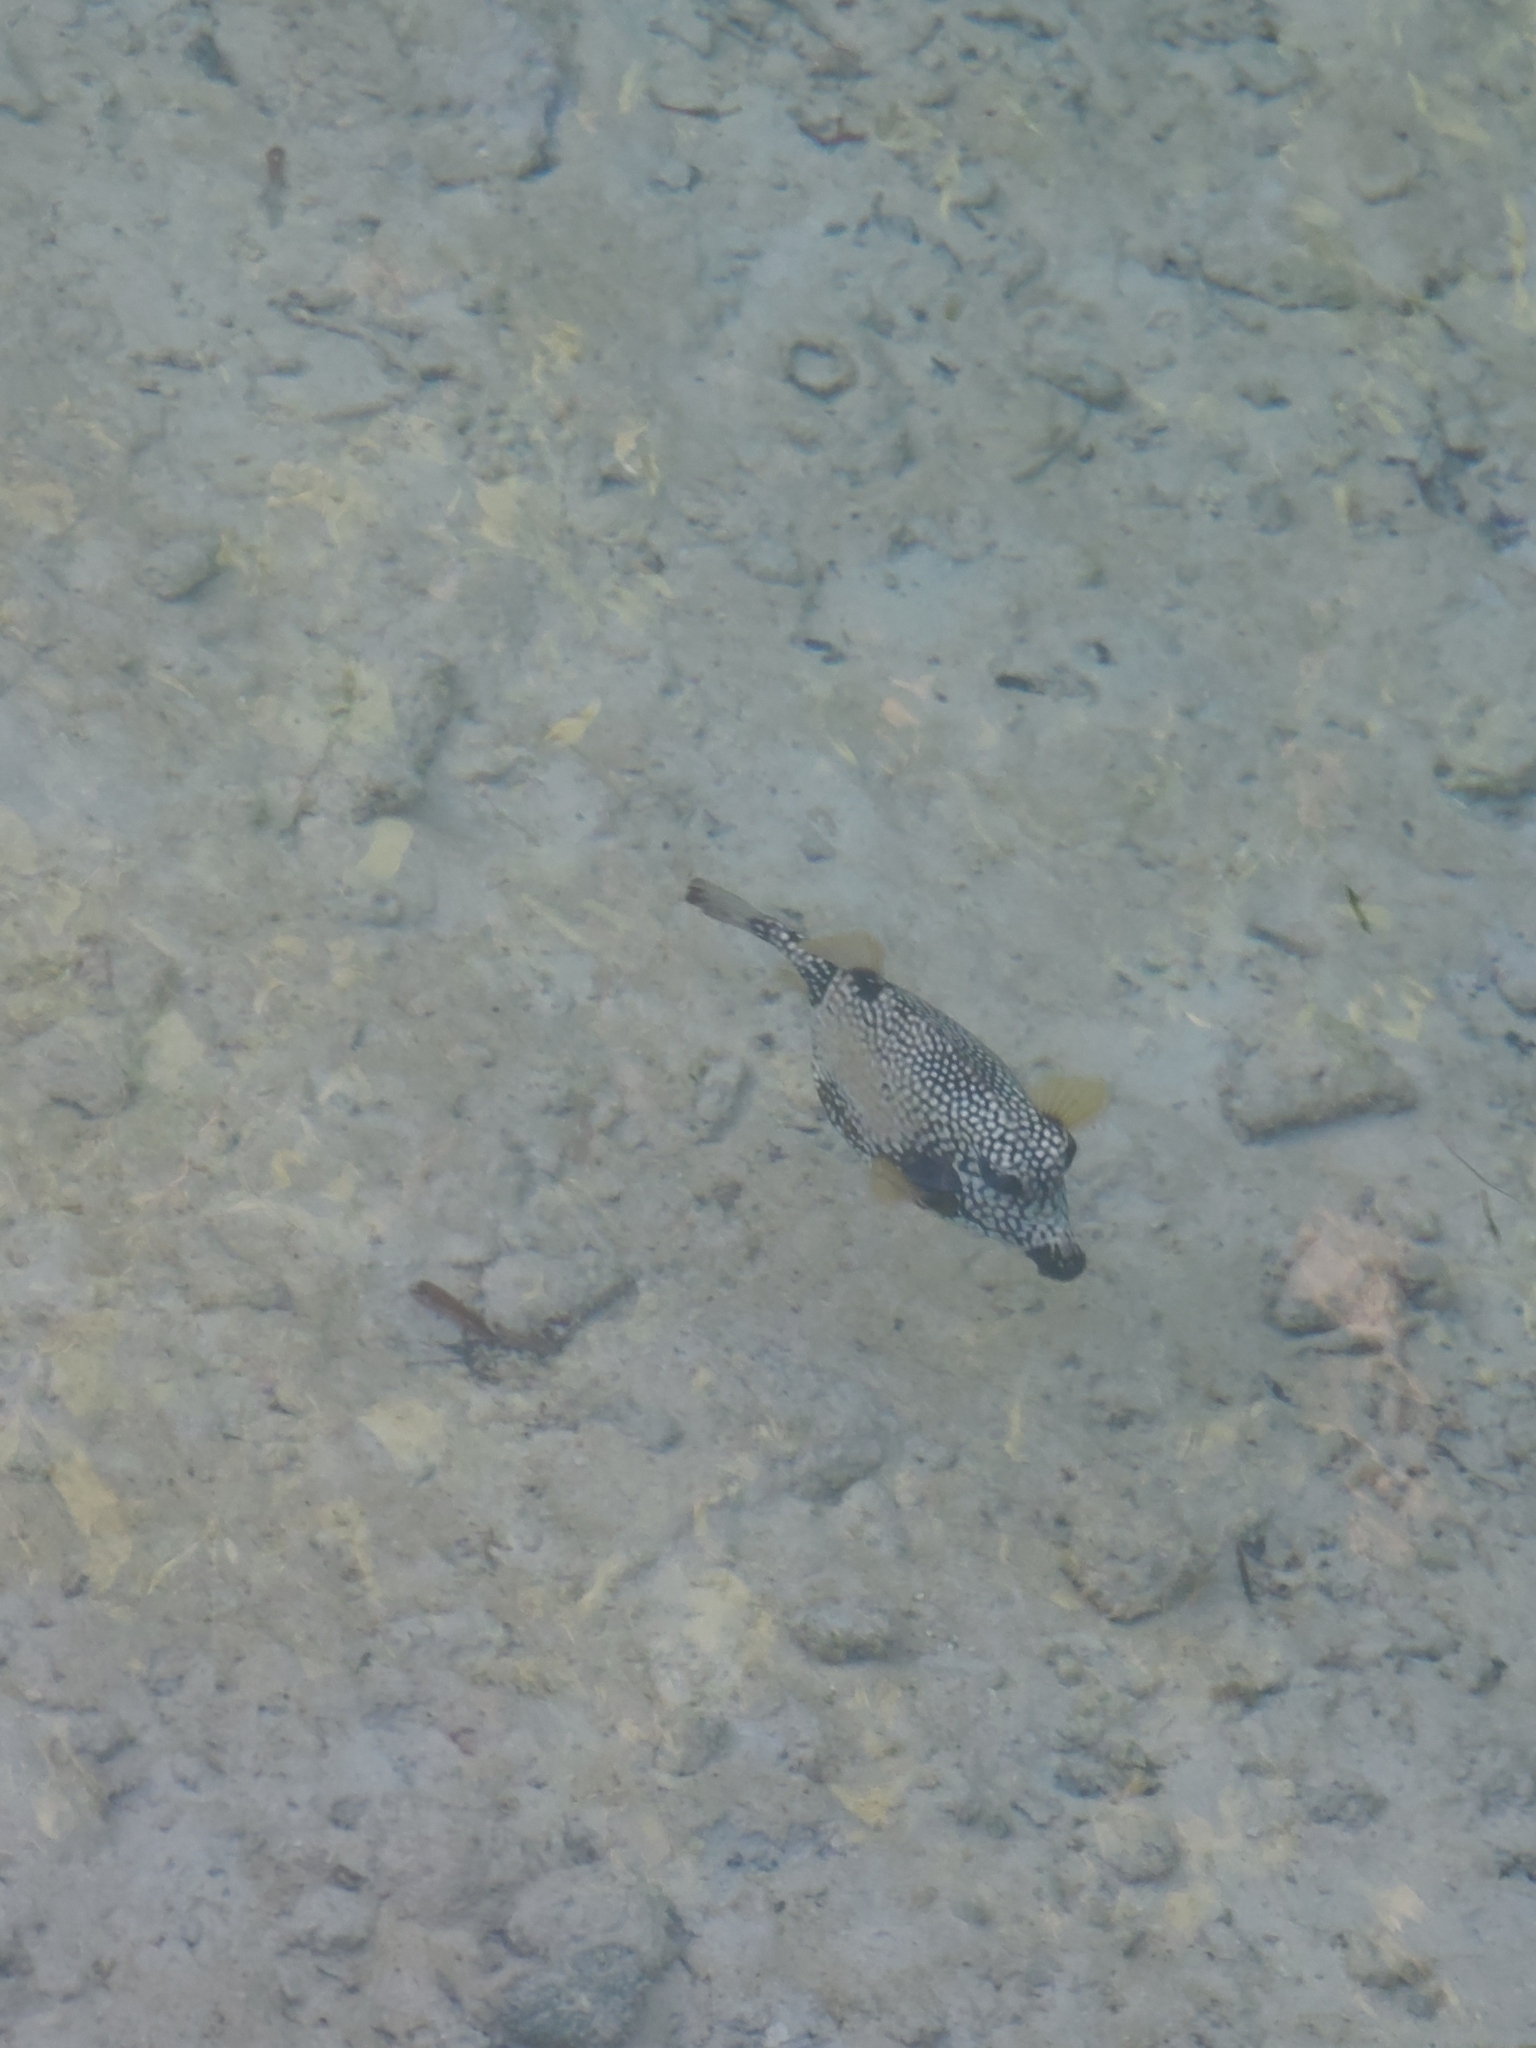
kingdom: Animalia
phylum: Chordata
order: Tetraodontiformes
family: Ostraciidae
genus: Lactophrys
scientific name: Lactophrys triqueter
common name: Smooth trunkfish
